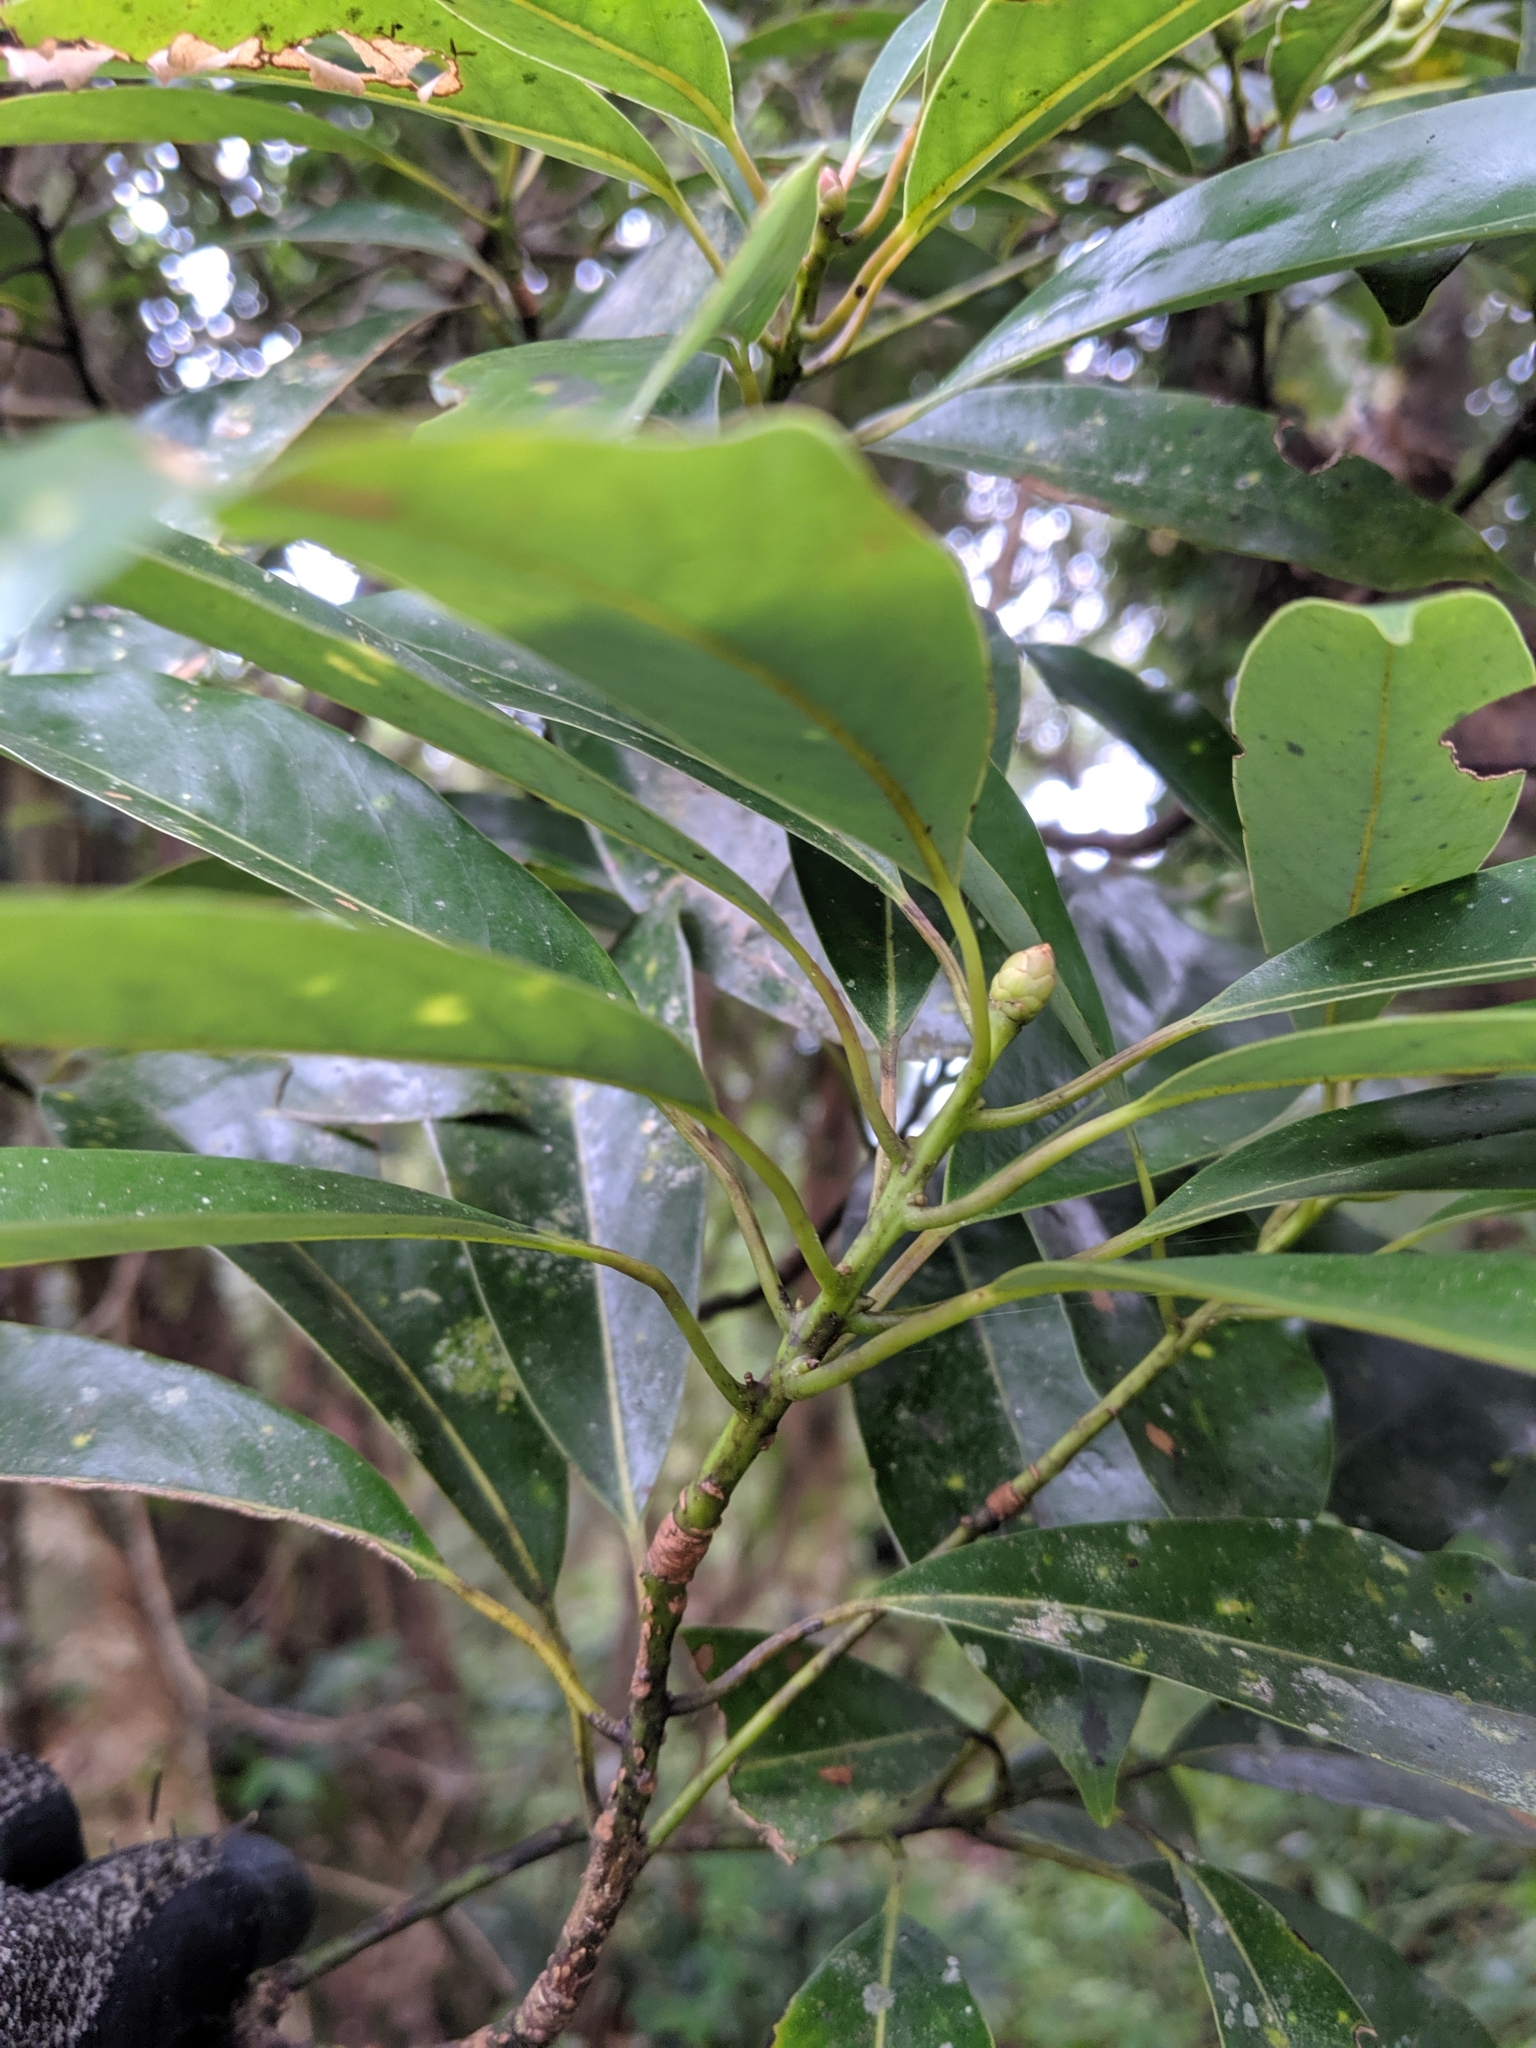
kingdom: Plantae
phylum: Tracheophyta
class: Magnoliopsida
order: Laurales
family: Lauraceae
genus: Machilus
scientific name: Machilus thunbergii
